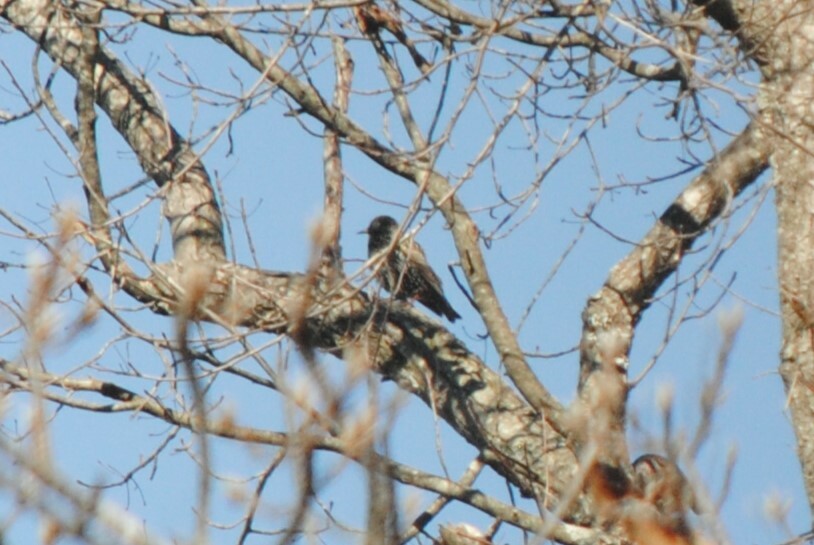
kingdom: Animalia
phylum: Chordata
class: Aves
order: Passeriformes
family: Sturnidae
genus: Sturnus
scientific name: Sturnus vulgaris
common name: Common starling
